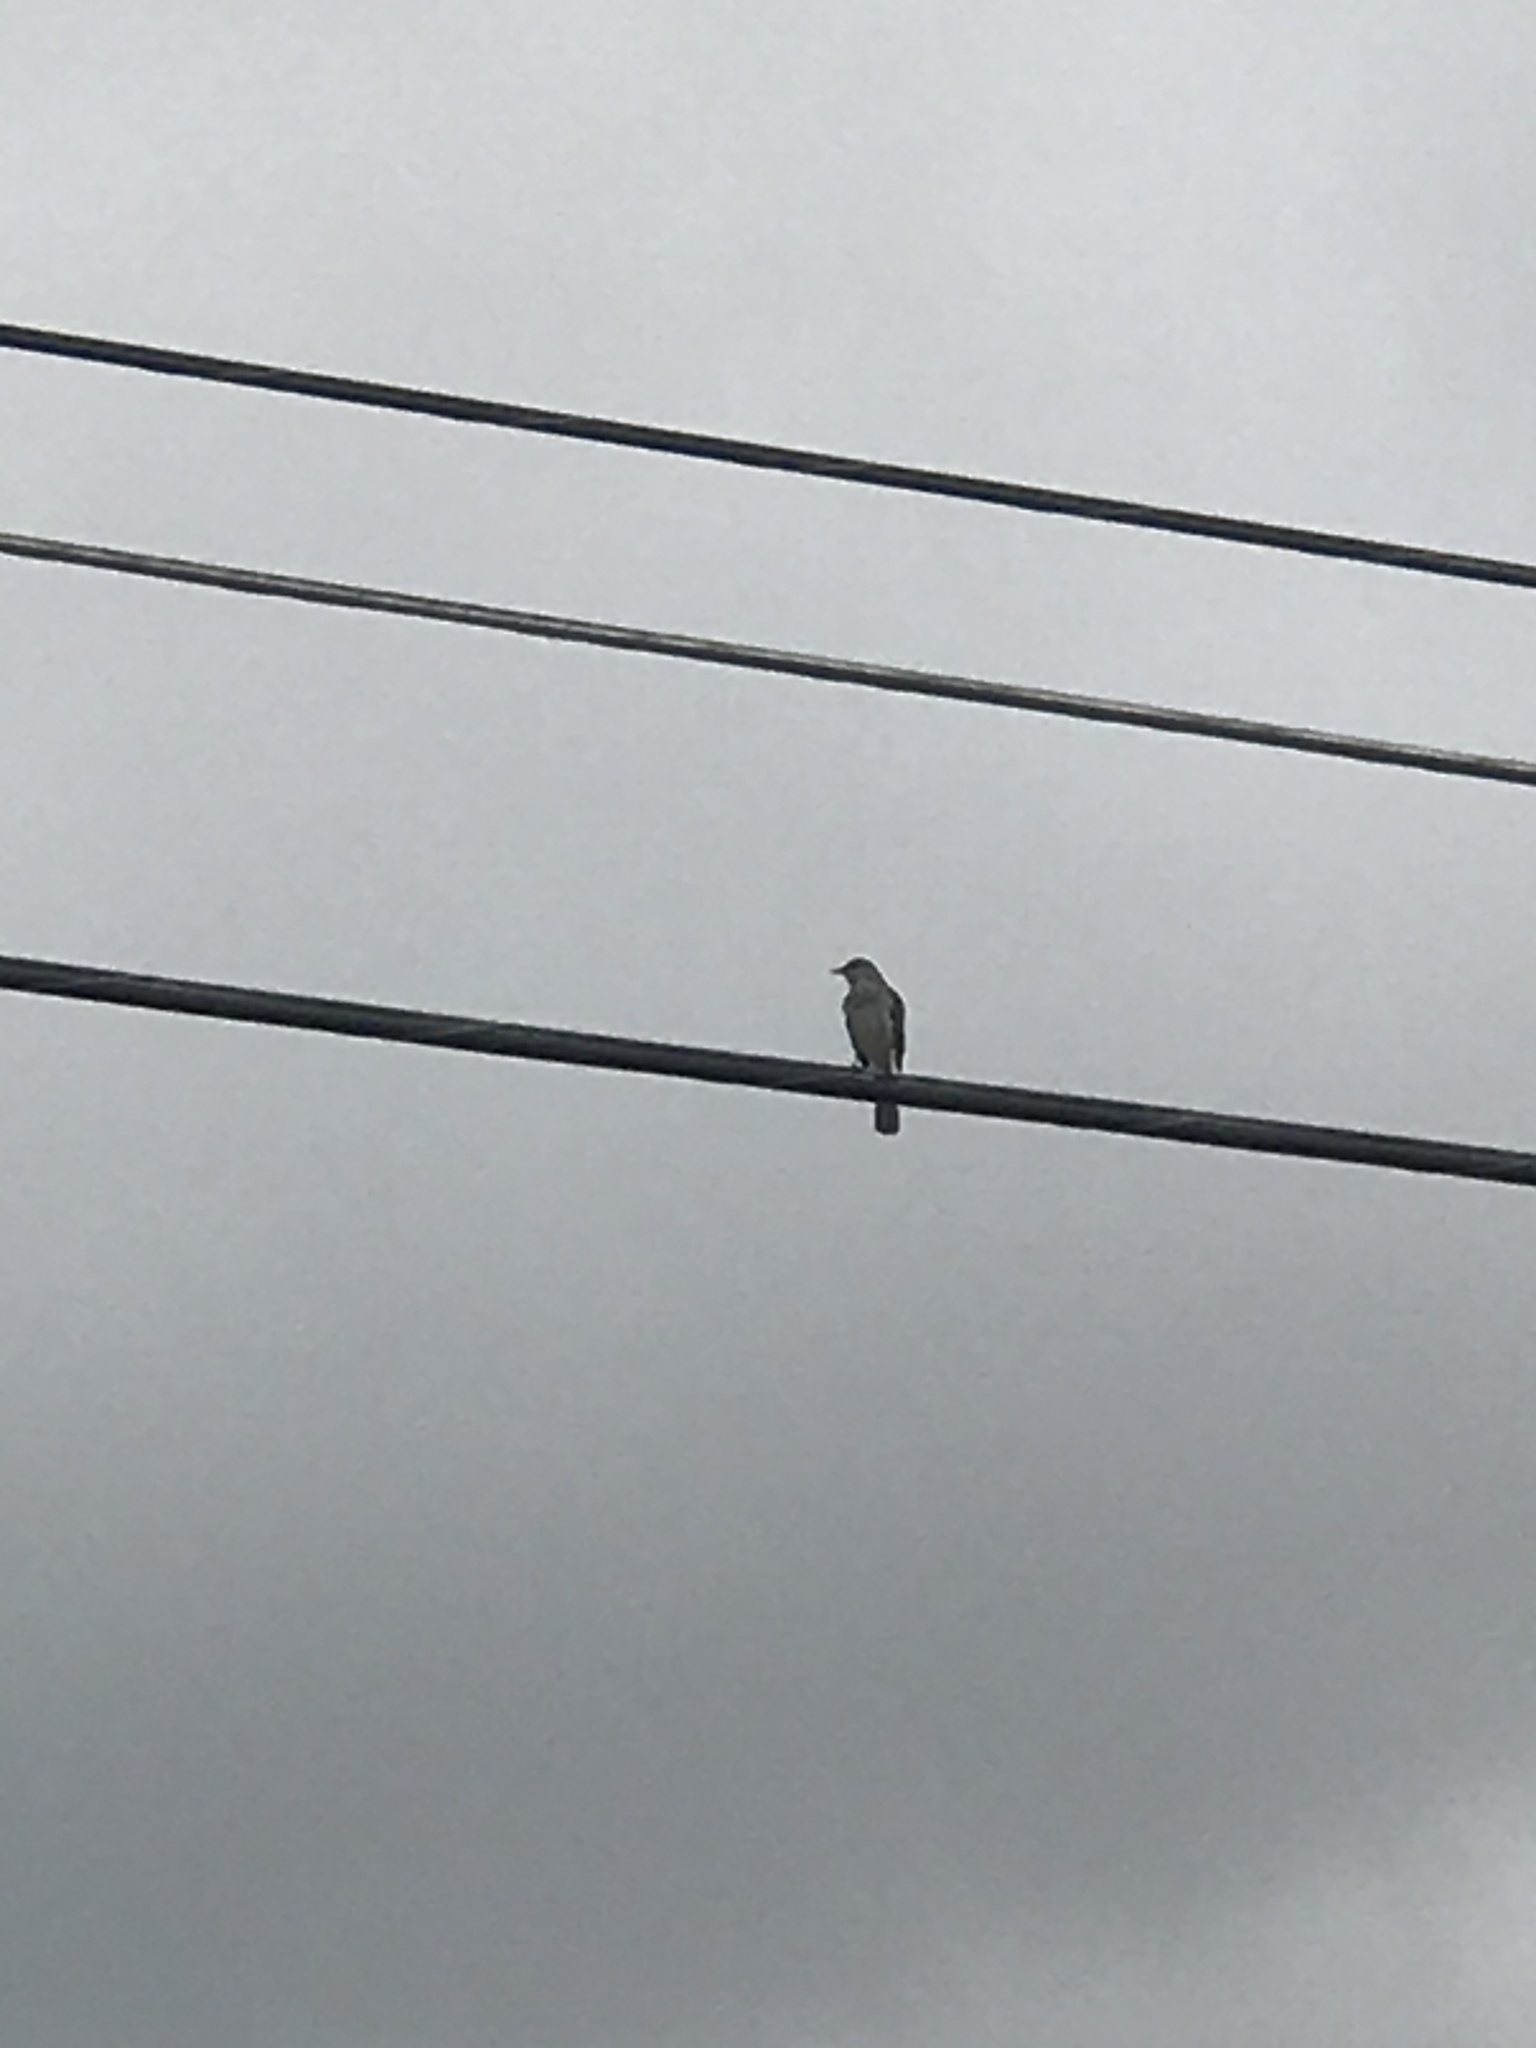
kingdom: Animalia
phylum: Chordata
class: Aves
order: Passeriformes
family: Mimidae
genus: Mimus
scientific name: Mimus polyglottos
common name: Northern mockingbird
